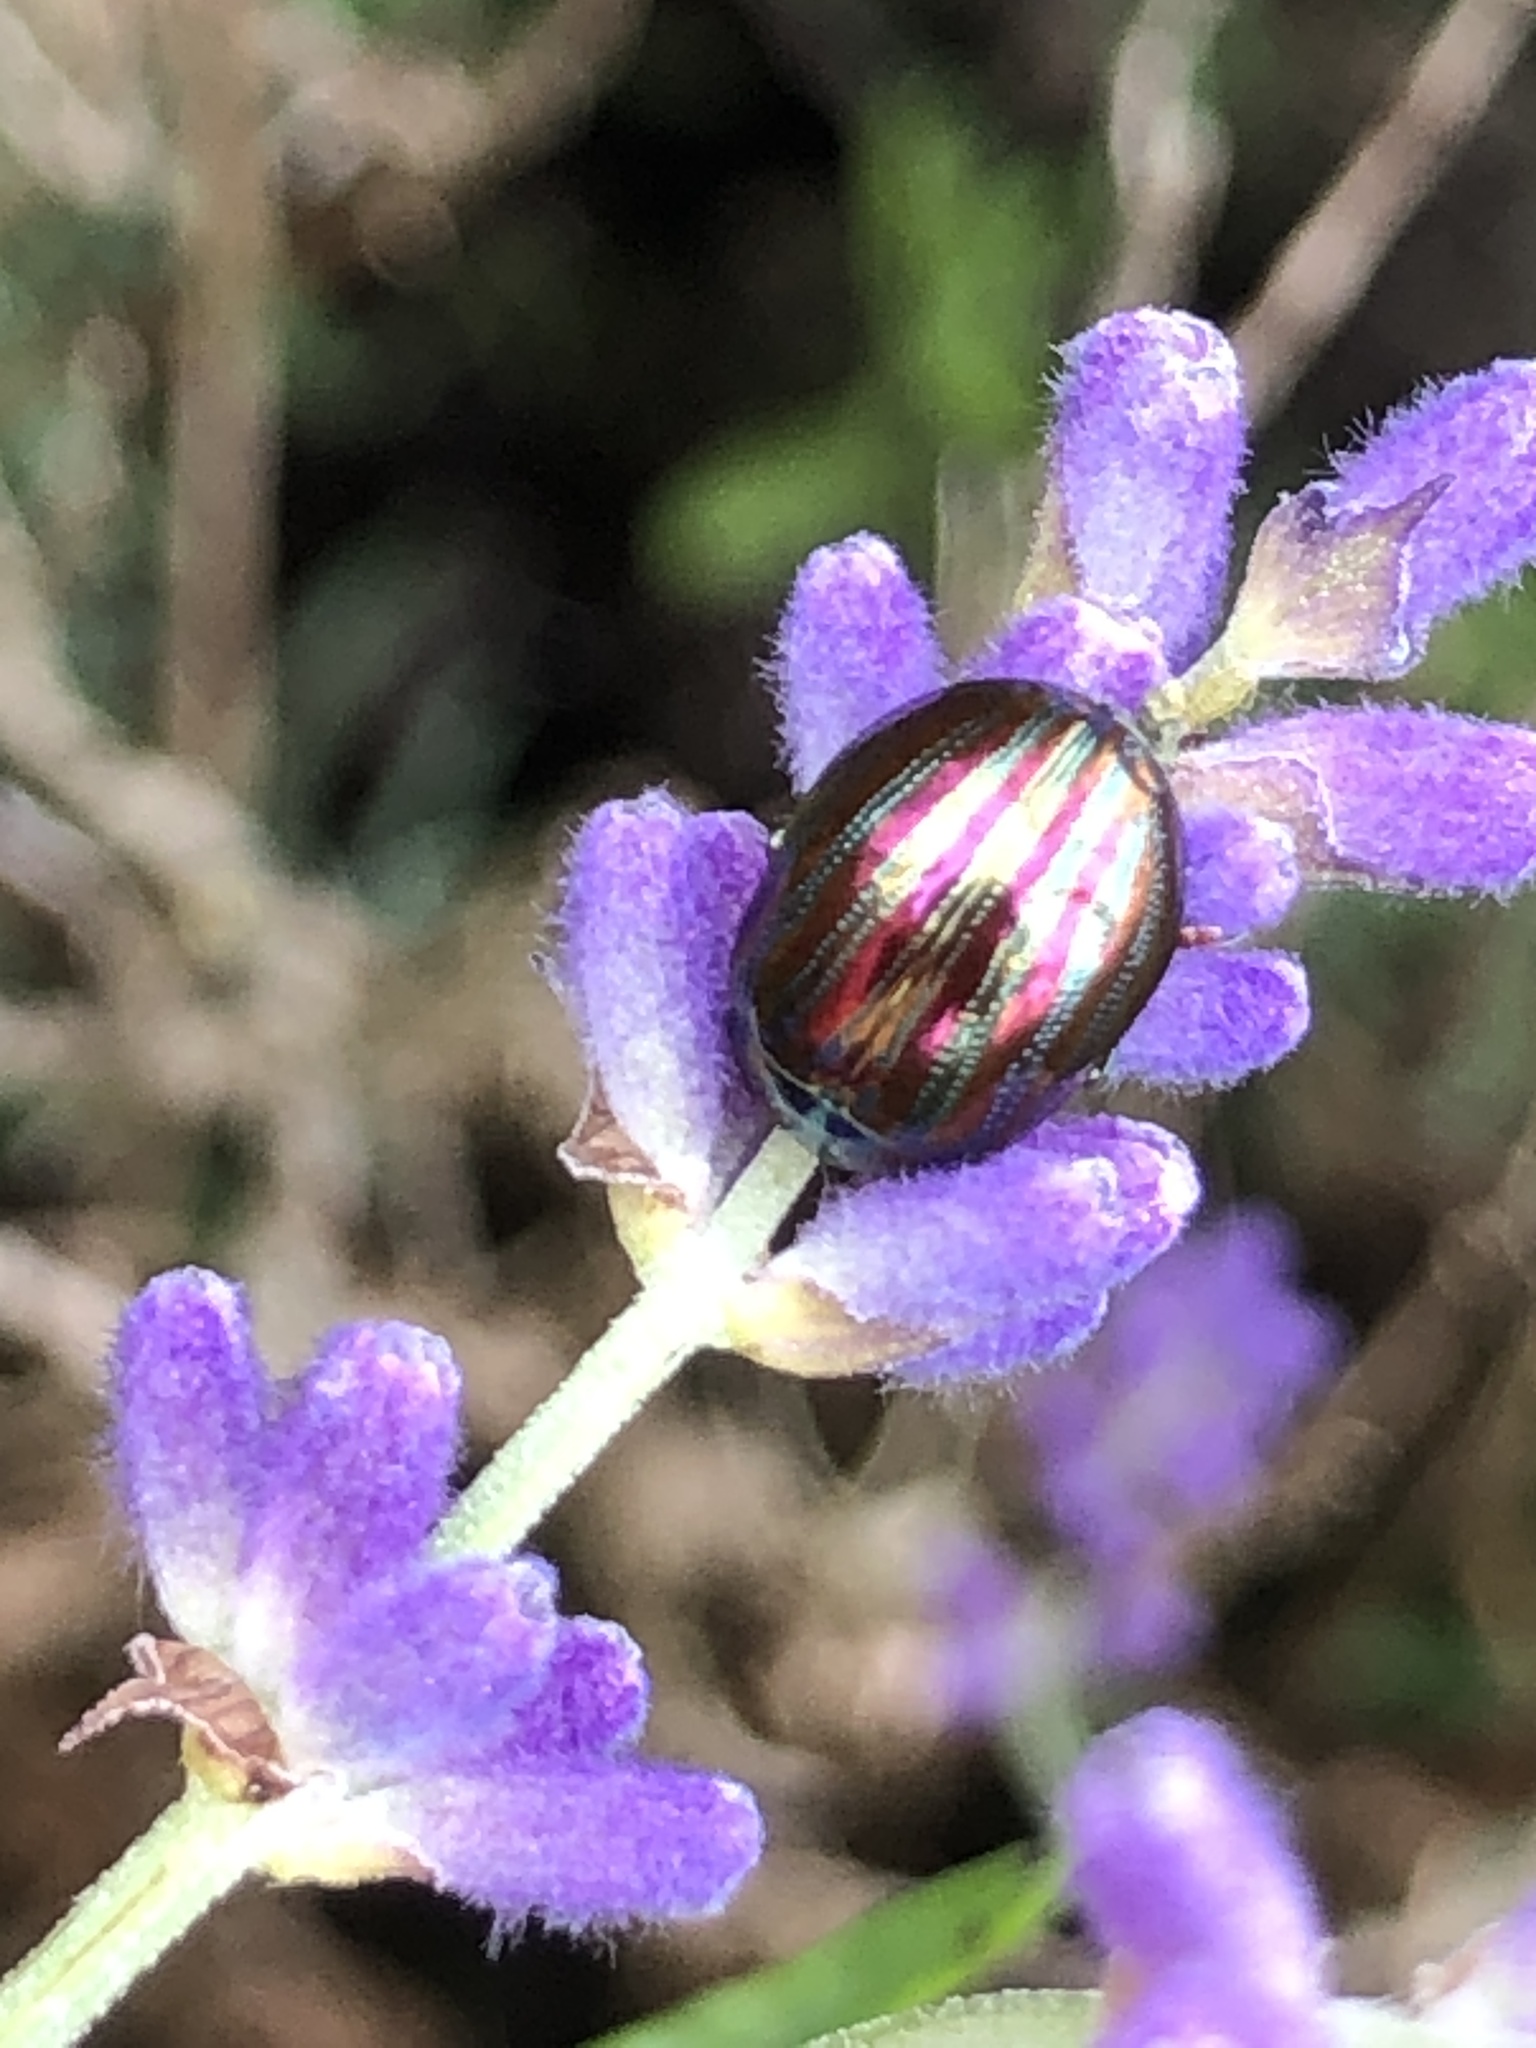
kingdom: Animalia
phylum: Arthropoda
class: Insecta
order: Coleoptera
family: Chrysomelidae
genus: Chrysolina
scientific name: Chrysolina americana
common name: Rosemary beetle
